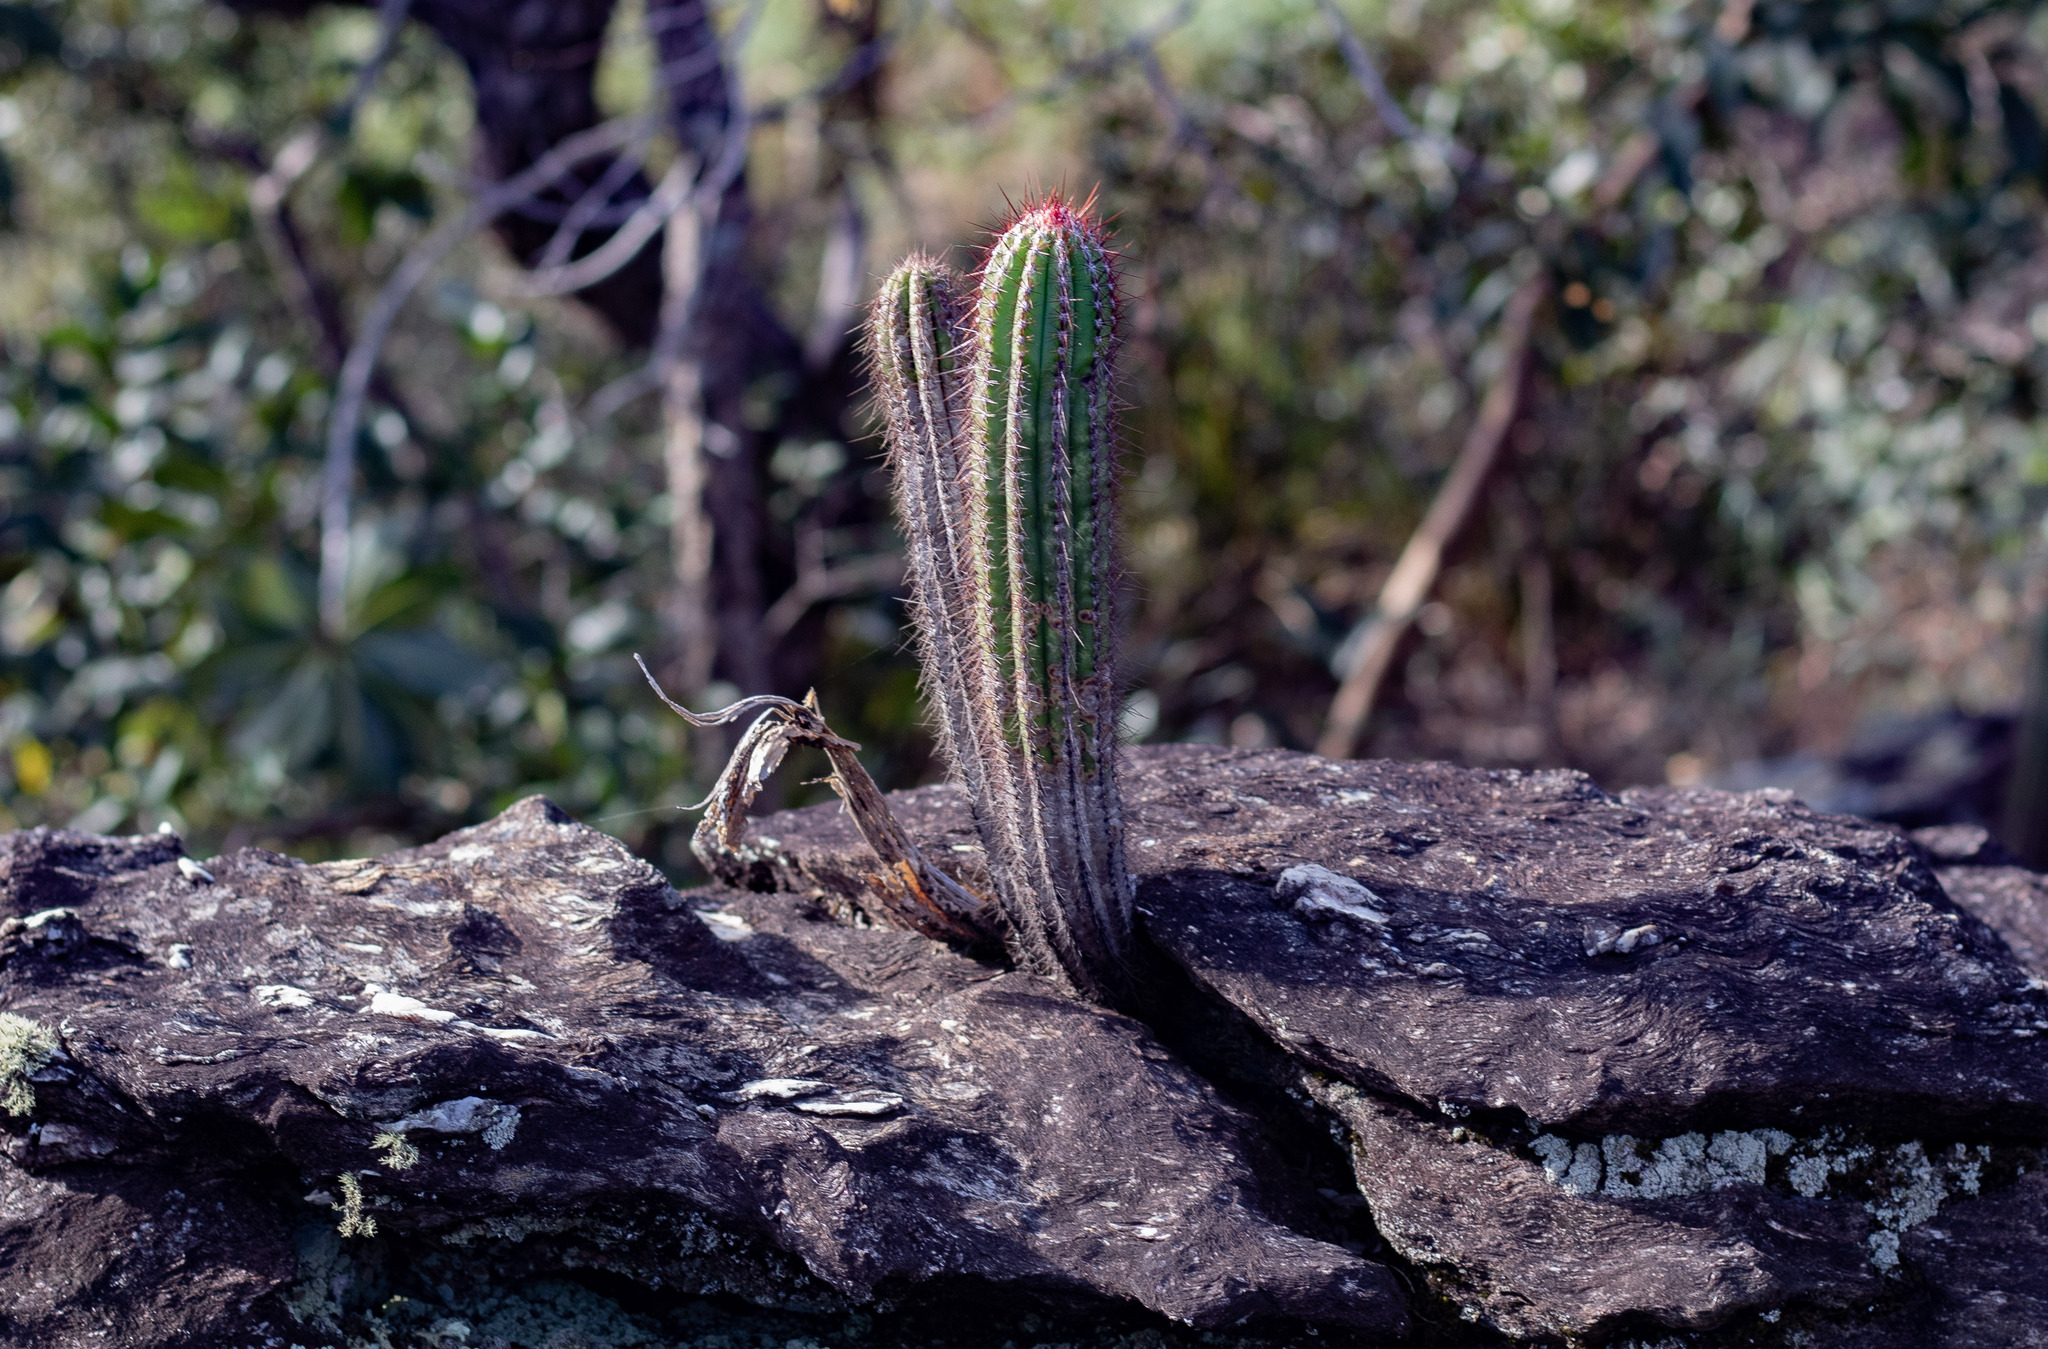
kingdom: Plantae
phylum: Tracheophyta
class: Magnoliopsida
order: Caryophyllales
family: Cactaceae
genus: Pilosocereus
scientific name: Pilosocereus machrisii
